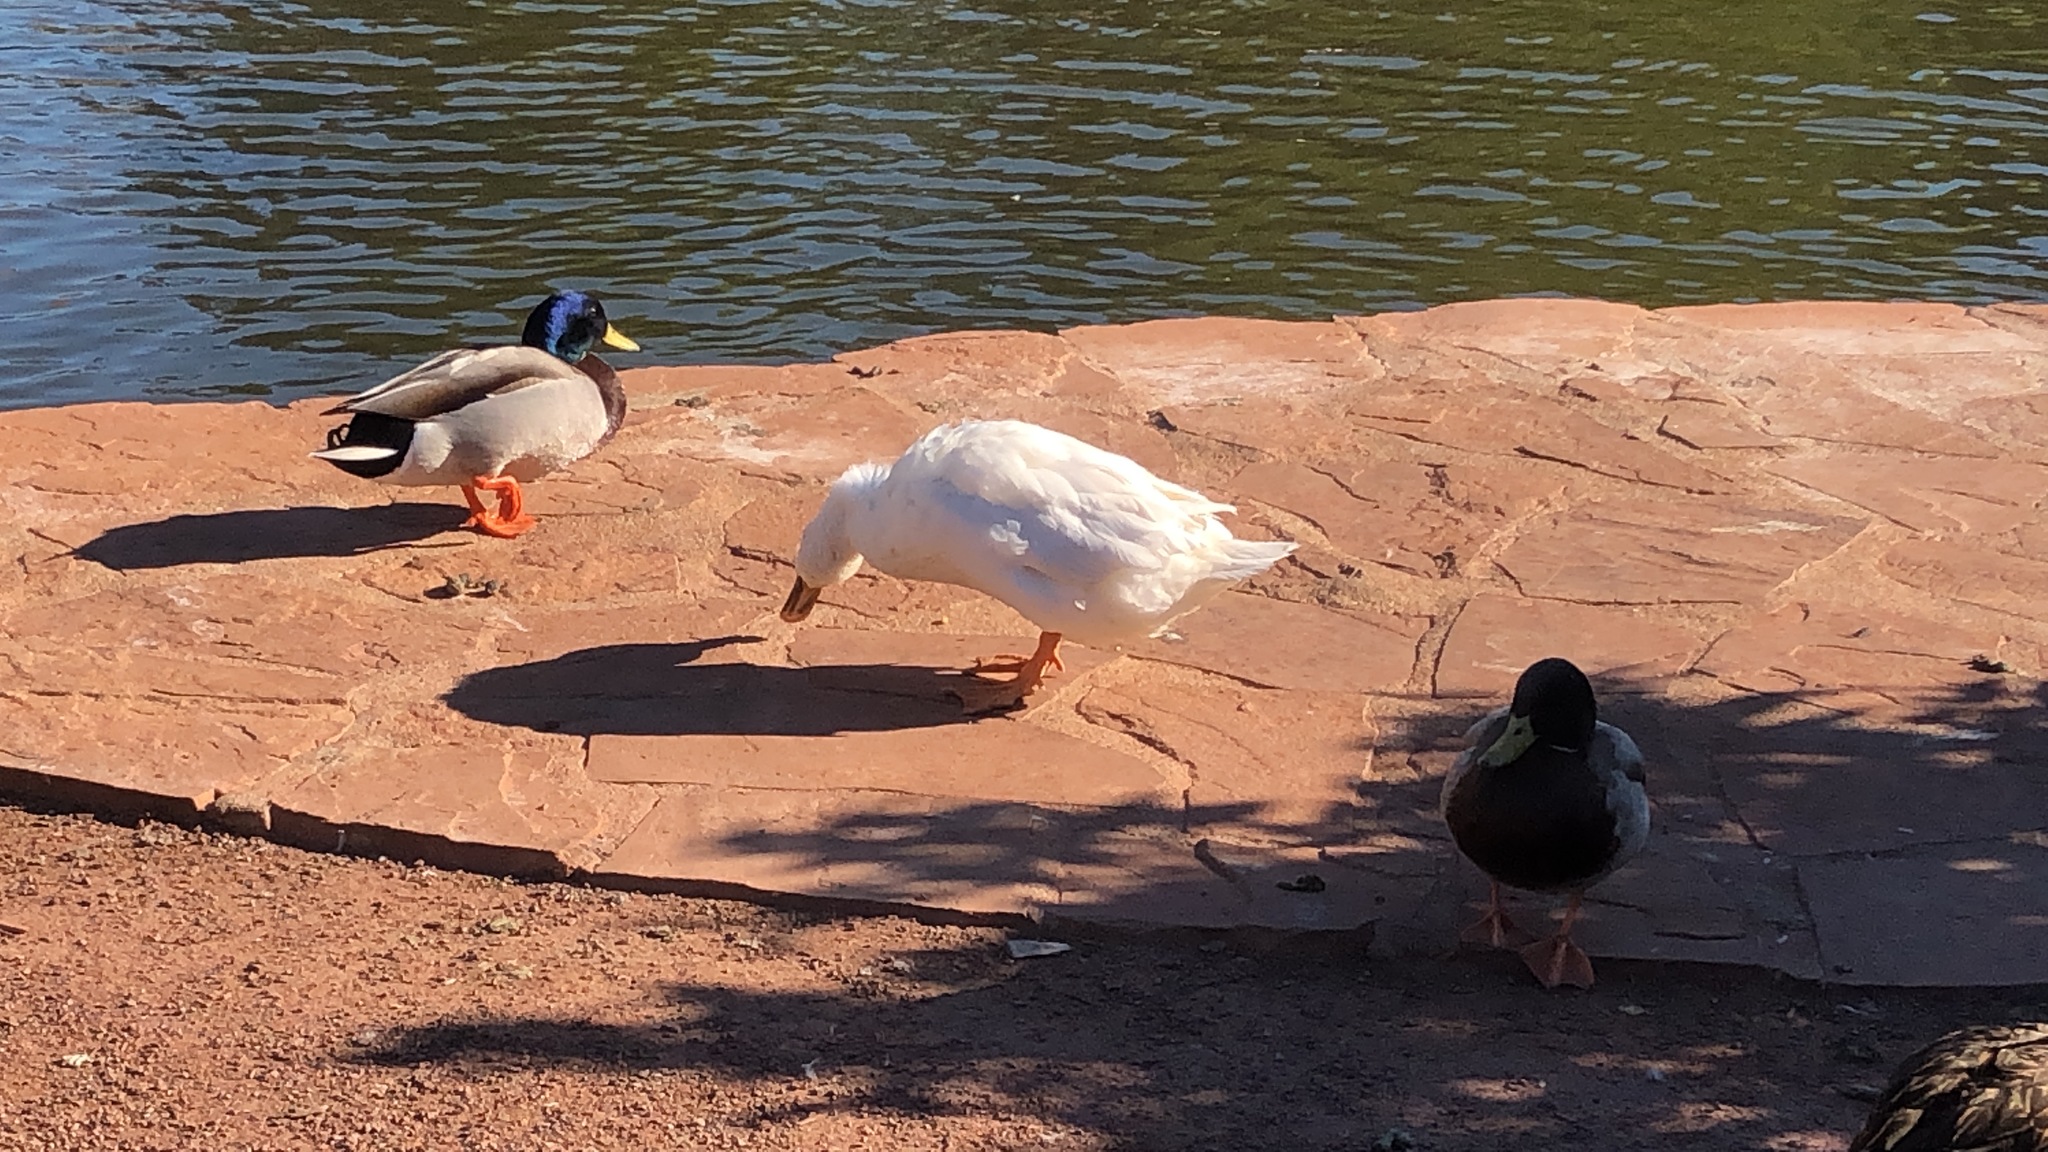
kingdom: Animalia
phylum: Chordata
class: Aves
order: Anseriformes
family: Anatidae
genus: Anas
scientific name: Anas platyrhynchos
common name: Mallard
